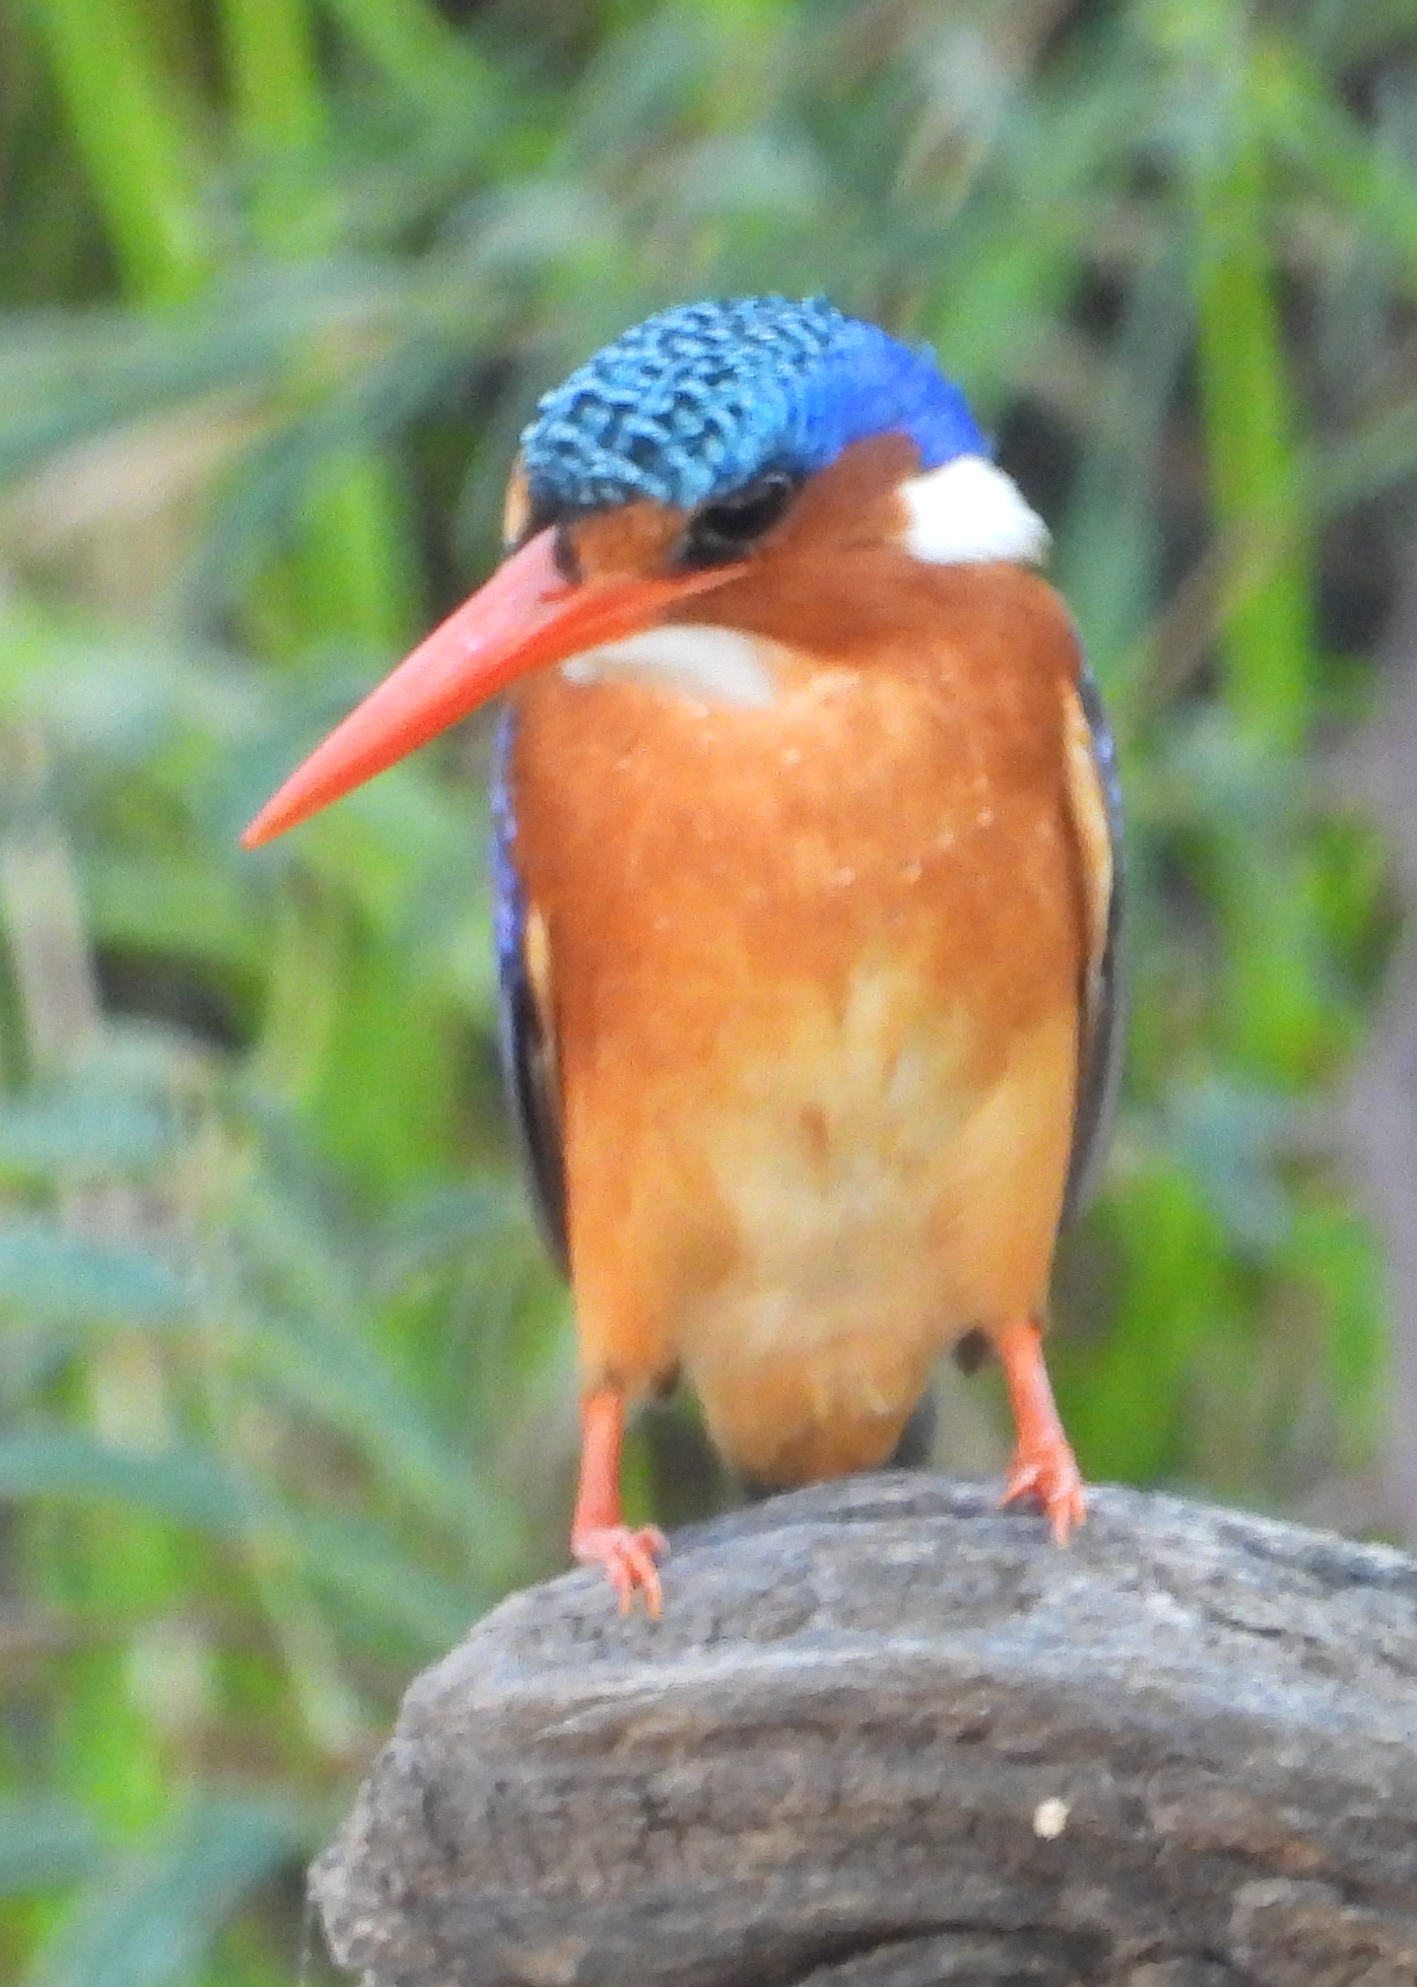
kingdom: Animalia
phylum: Chordata
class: Aves
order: Coraciiformes
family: Alcedinidae
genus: Corythornis
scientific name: Corythornis cristatus
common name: Malachite kingfisher
